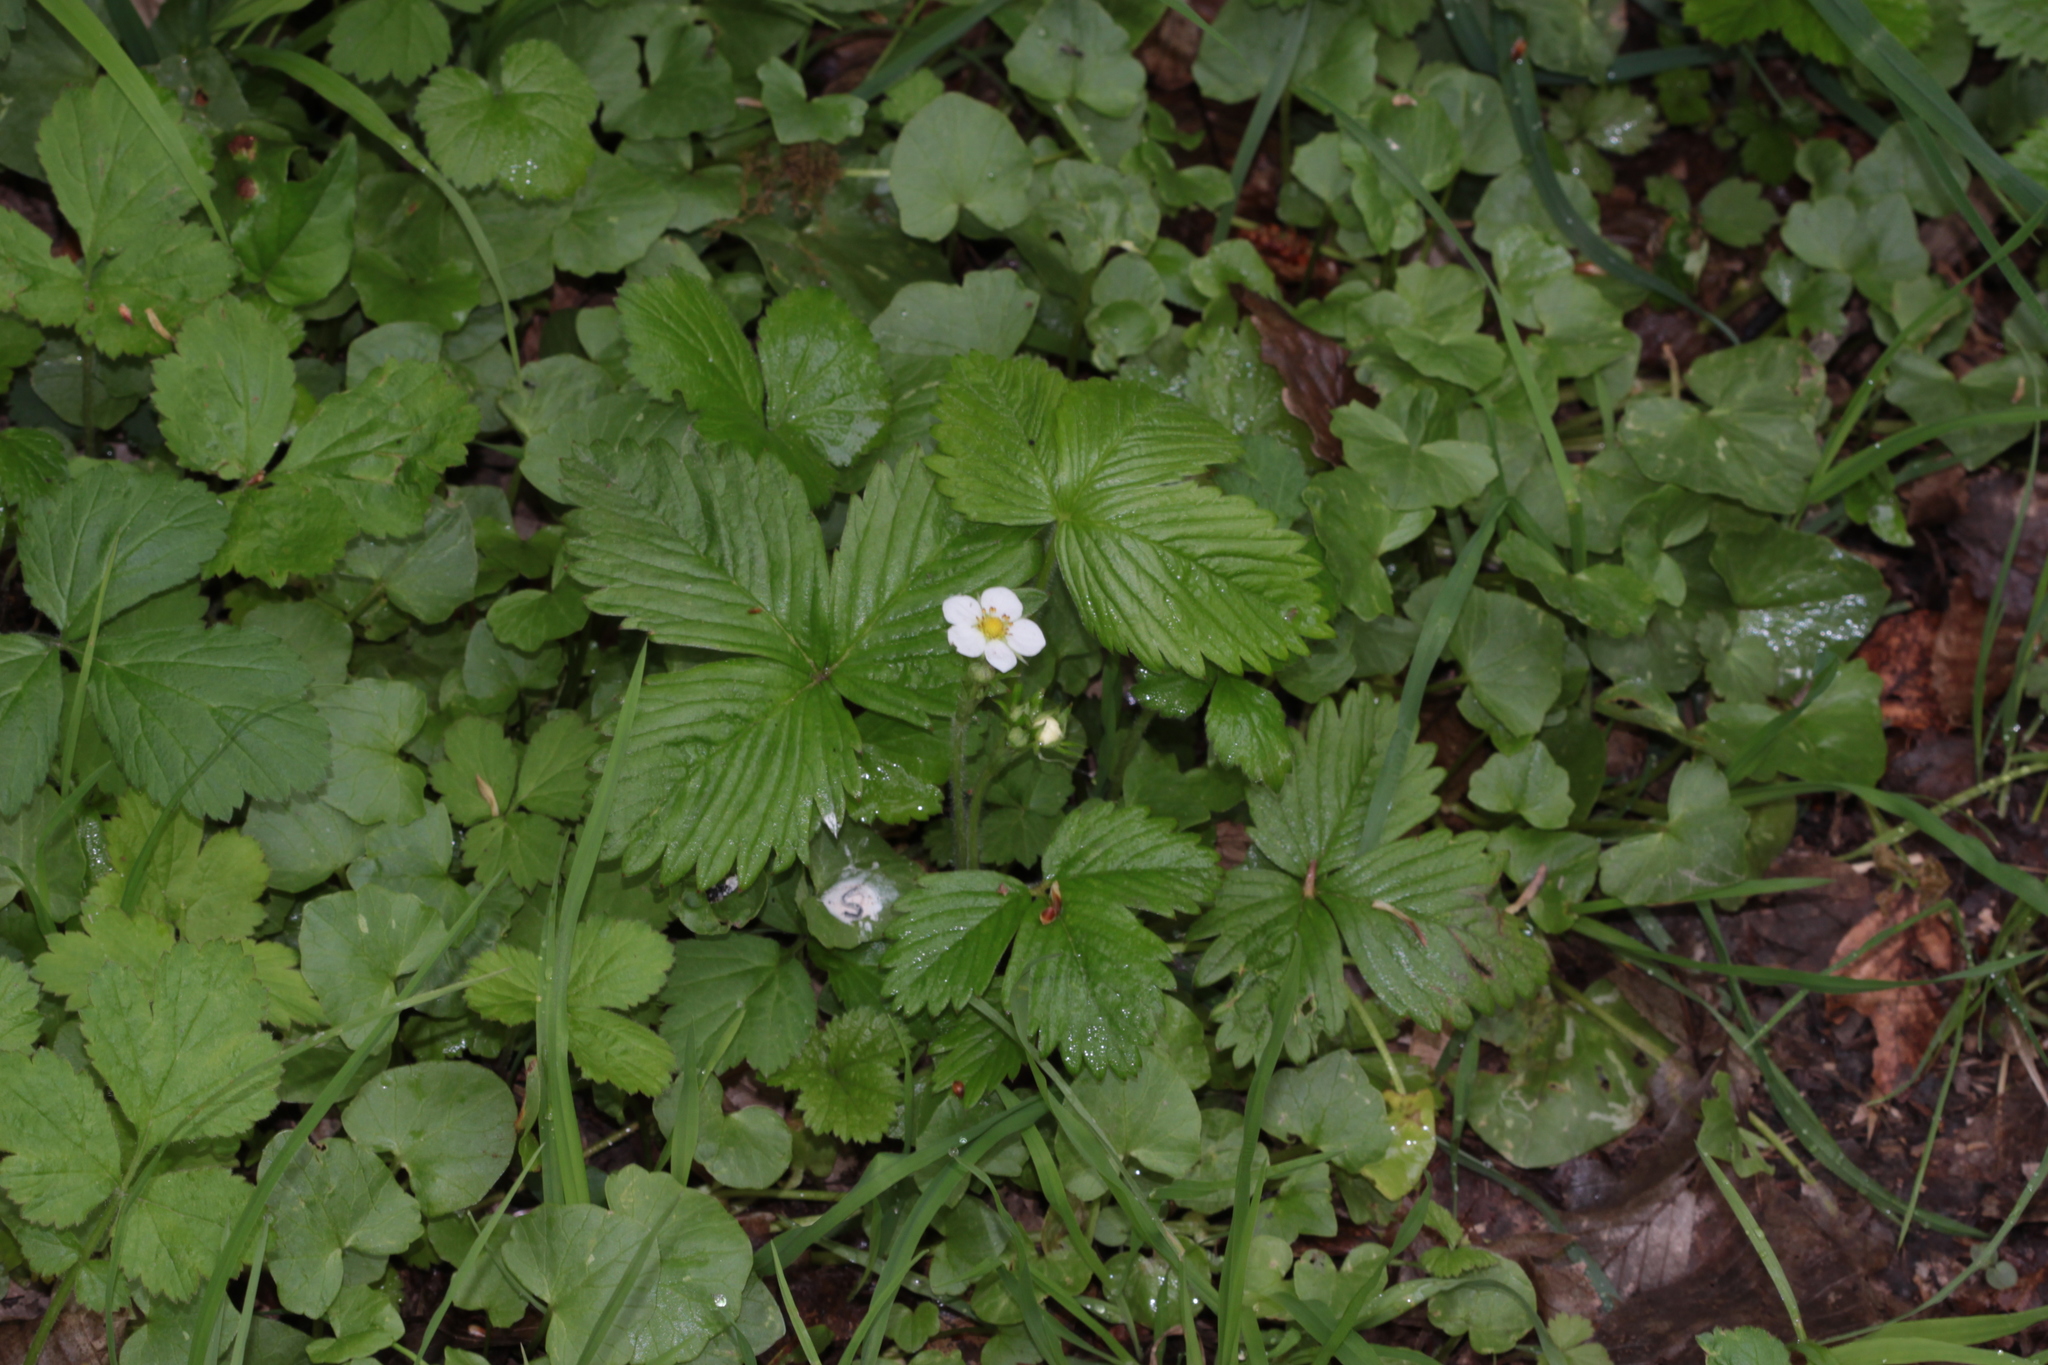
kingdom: Plantae
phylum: Tracheophyta
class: Magnoliopsida
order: Rosales
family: Rosaceae
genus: Fragaria
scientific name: Fragaria vesca
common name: Wild strawberry
